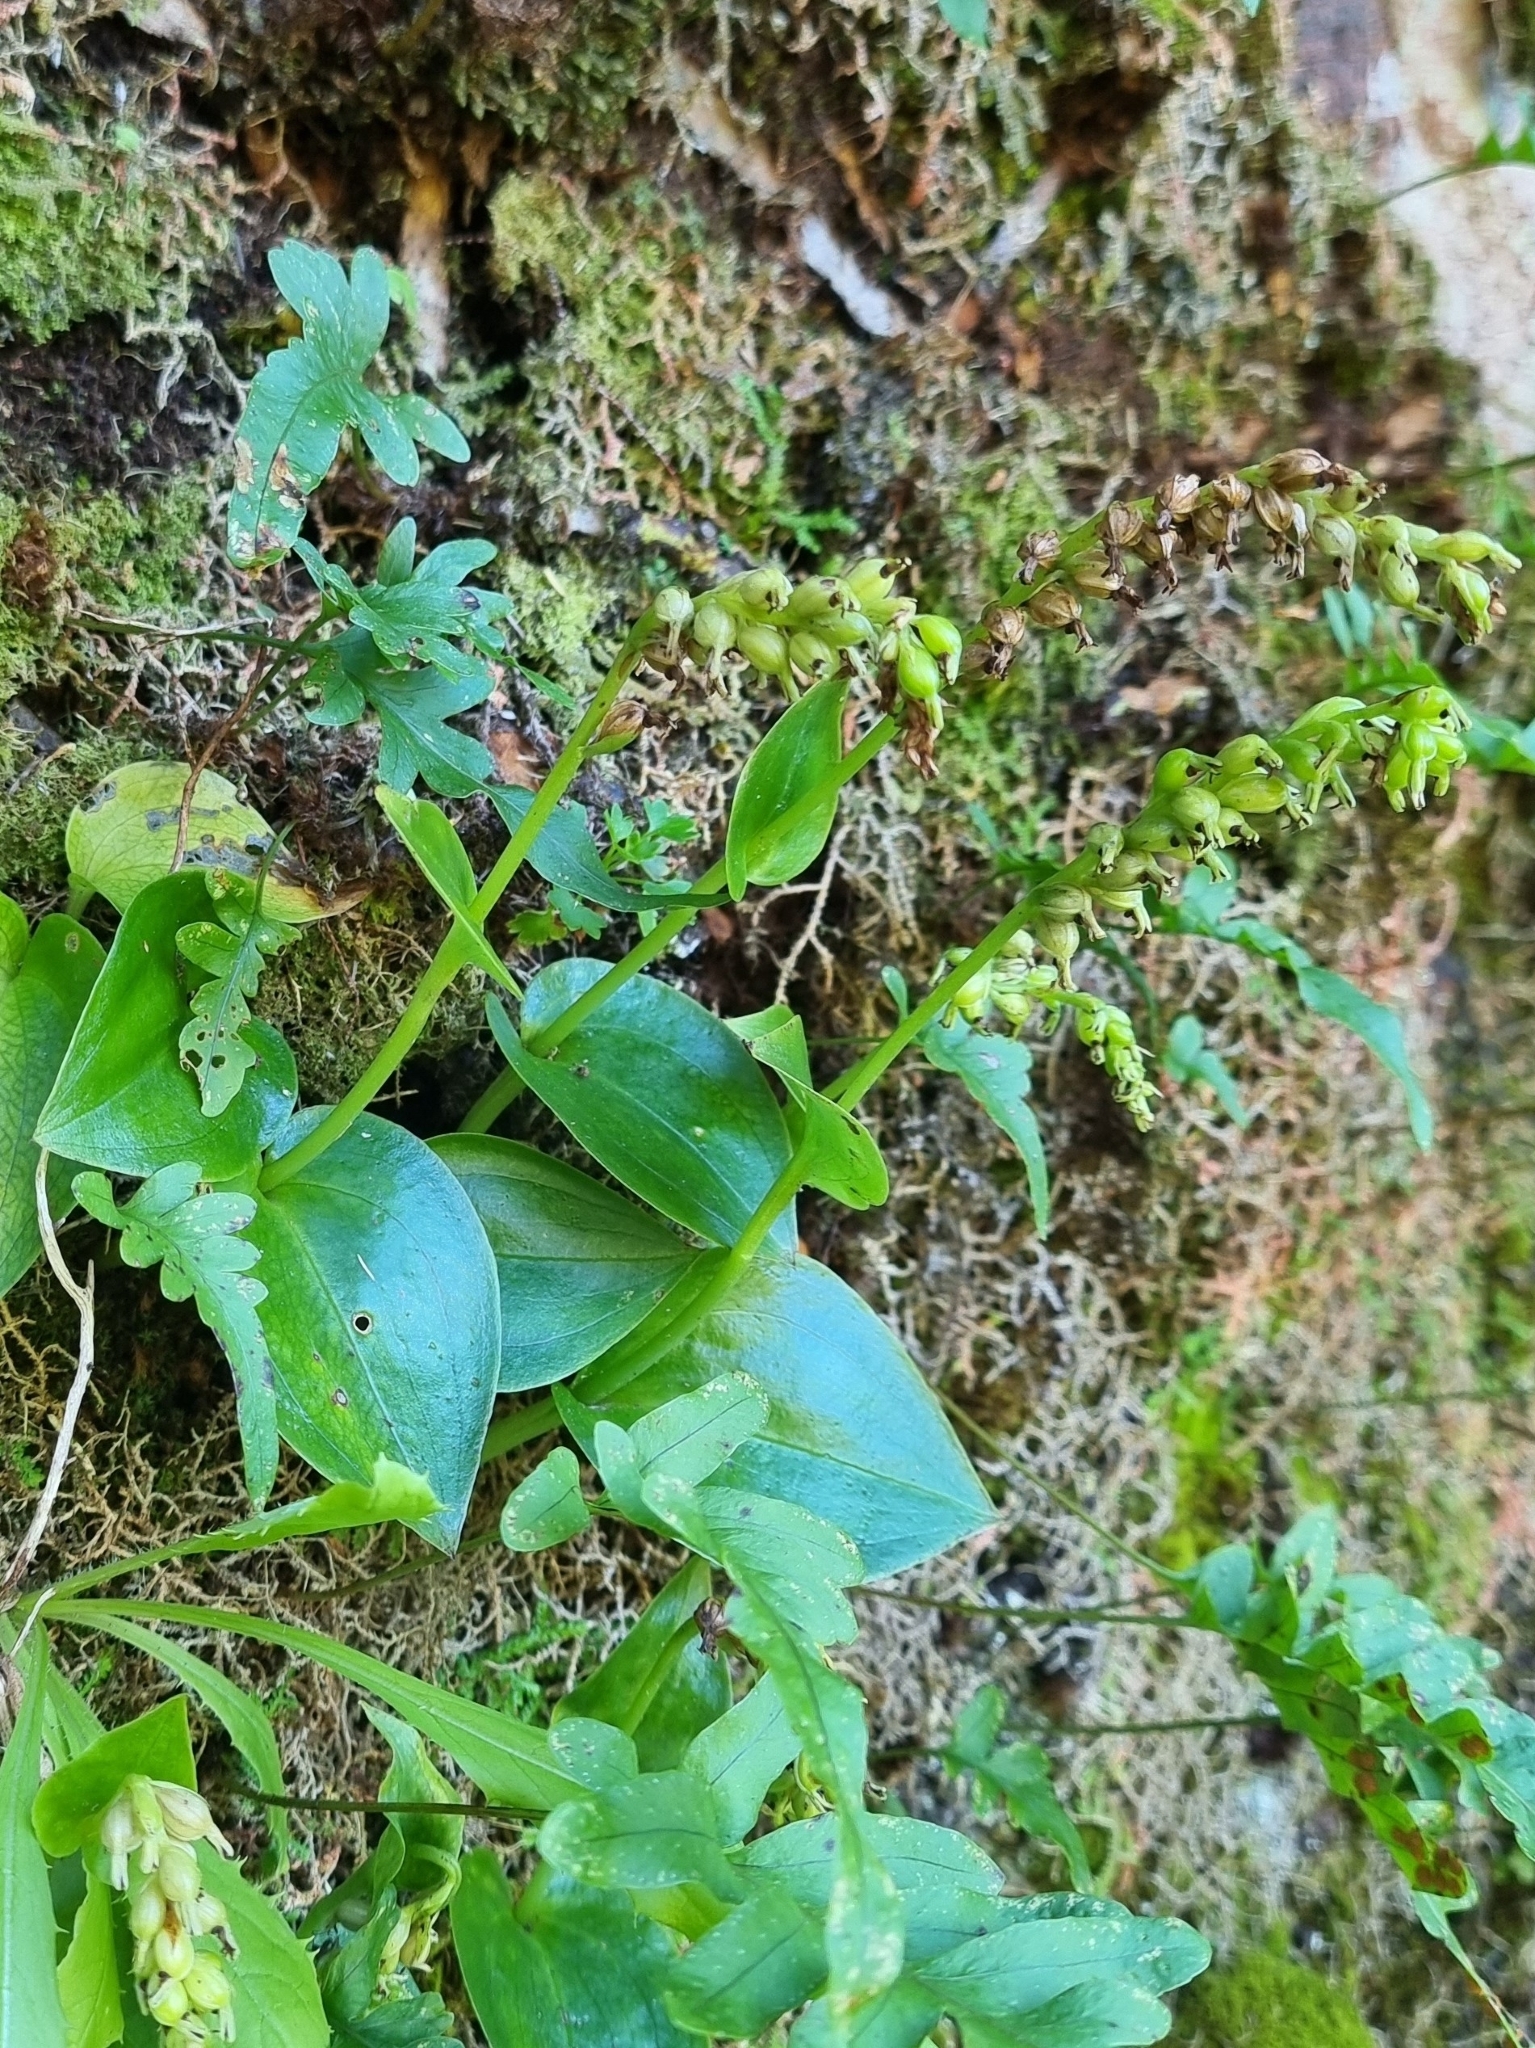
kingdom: Plantae
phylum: Tracheophyta
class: Liliopsida
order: Asparagales
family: Orchidaceae
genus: Gennaria
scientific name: Gennaria diphylla
